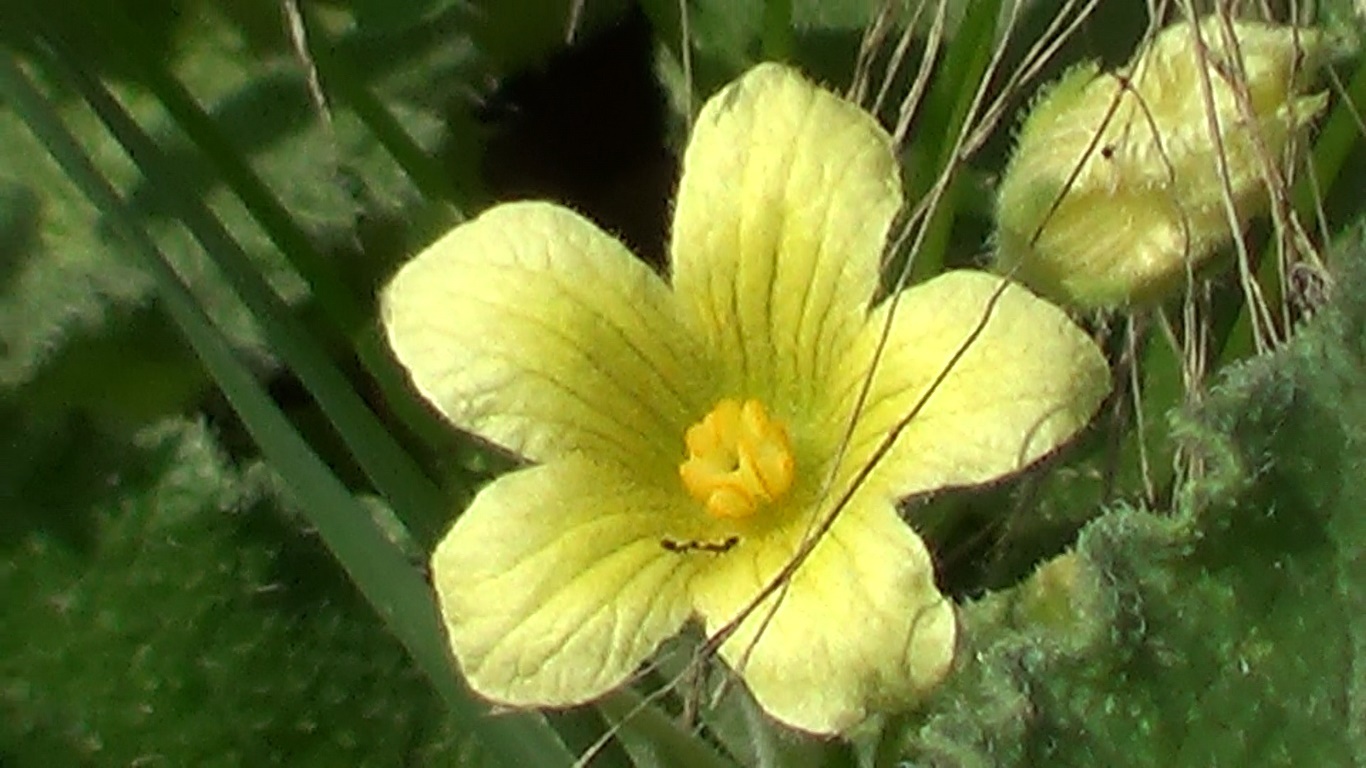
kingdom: Plantae
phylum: Tracheophyta
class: Magnoliopsida
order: Cucurbitales
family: Cucurbitaceae
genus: Ecballium
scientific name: Ecballium elaterium
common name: Squirting cucumber
